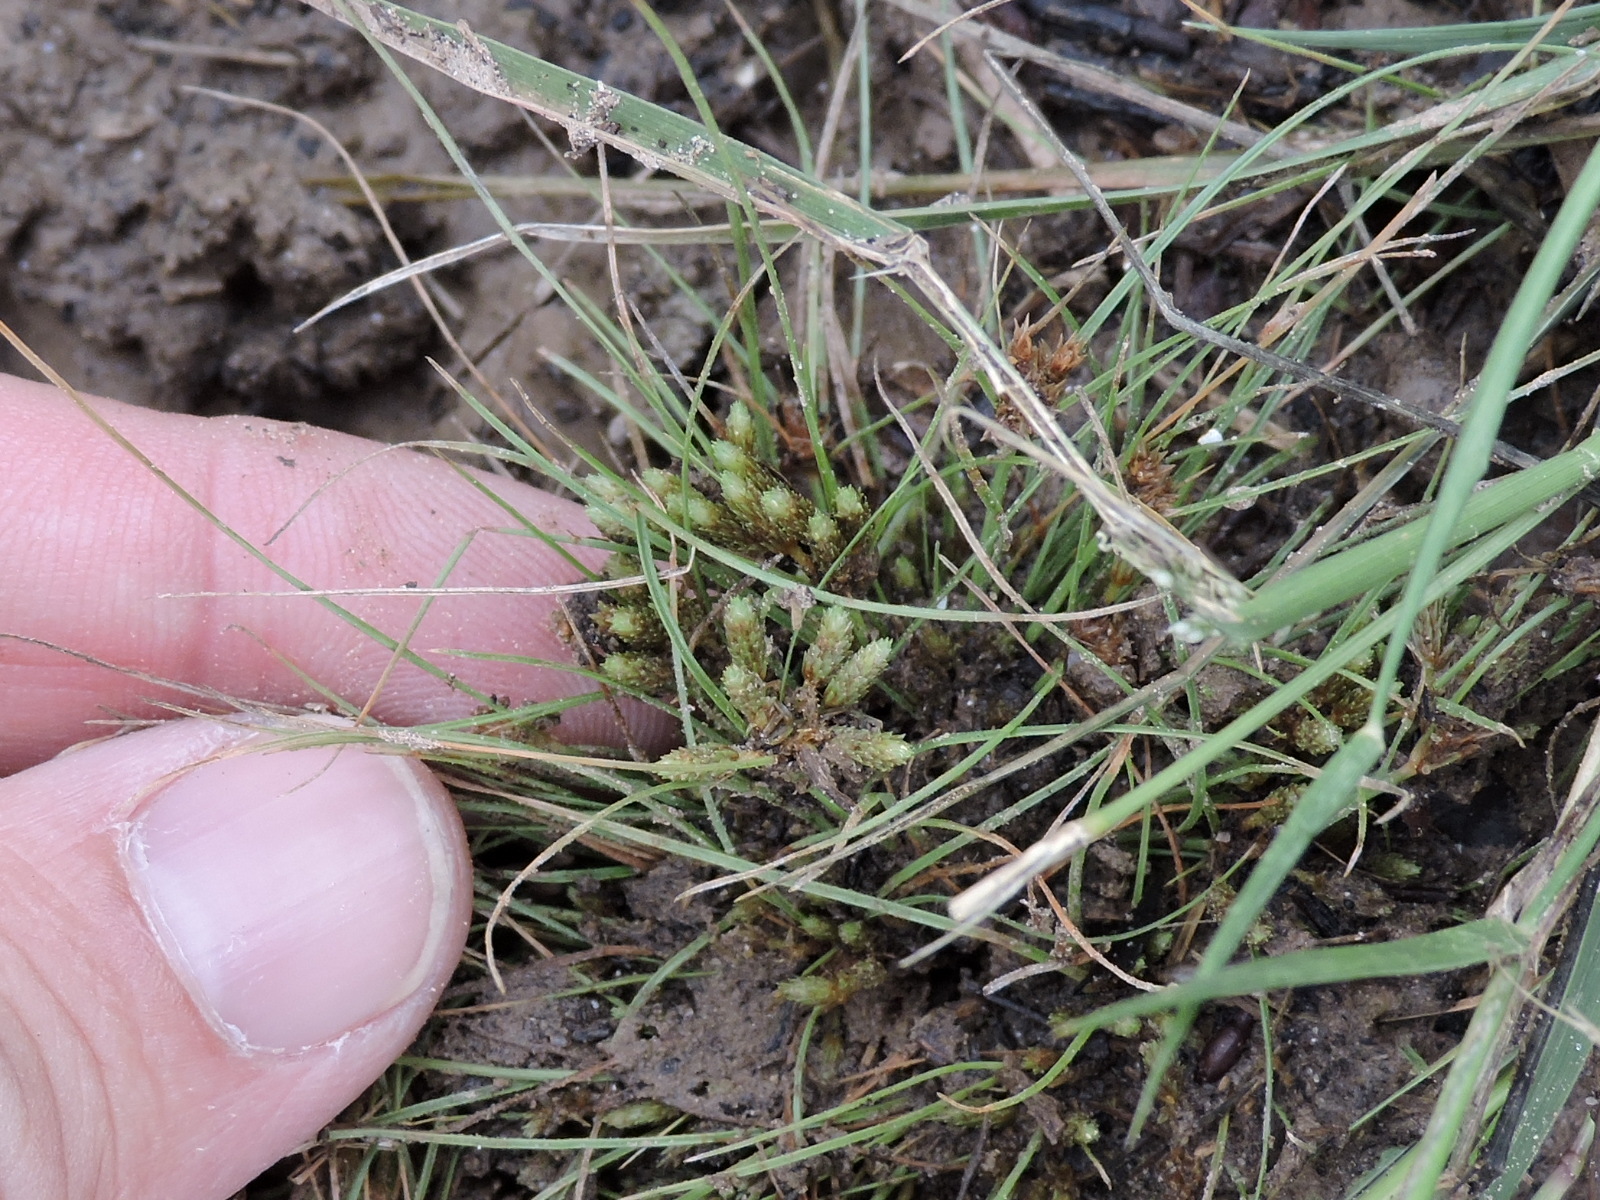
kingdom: Plantae
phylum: Tracheophyta
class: Liliopsida
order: Poales
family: Cyperaceae
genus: Fimbristylis
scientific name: Fimbristylis vahlii
